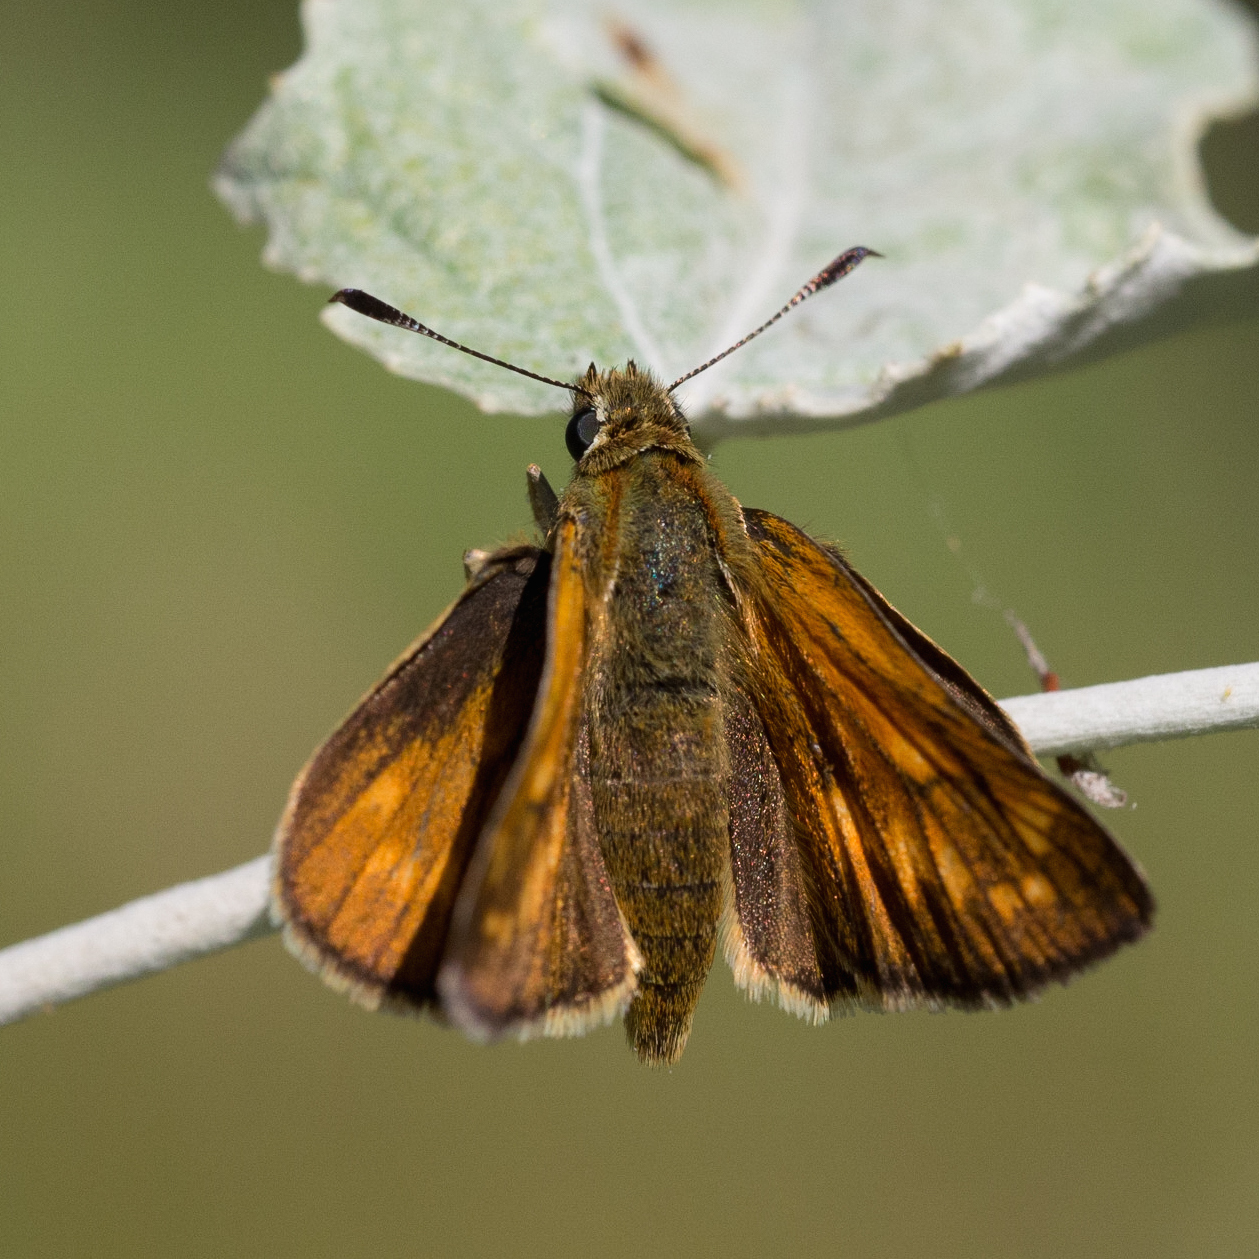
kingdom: Animalia
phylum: Arthropoda
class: Insecta
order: Lepidoptera
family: Hesperiidae
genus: Ochlodes
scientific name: Ochlodes venata
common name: Large skipper
